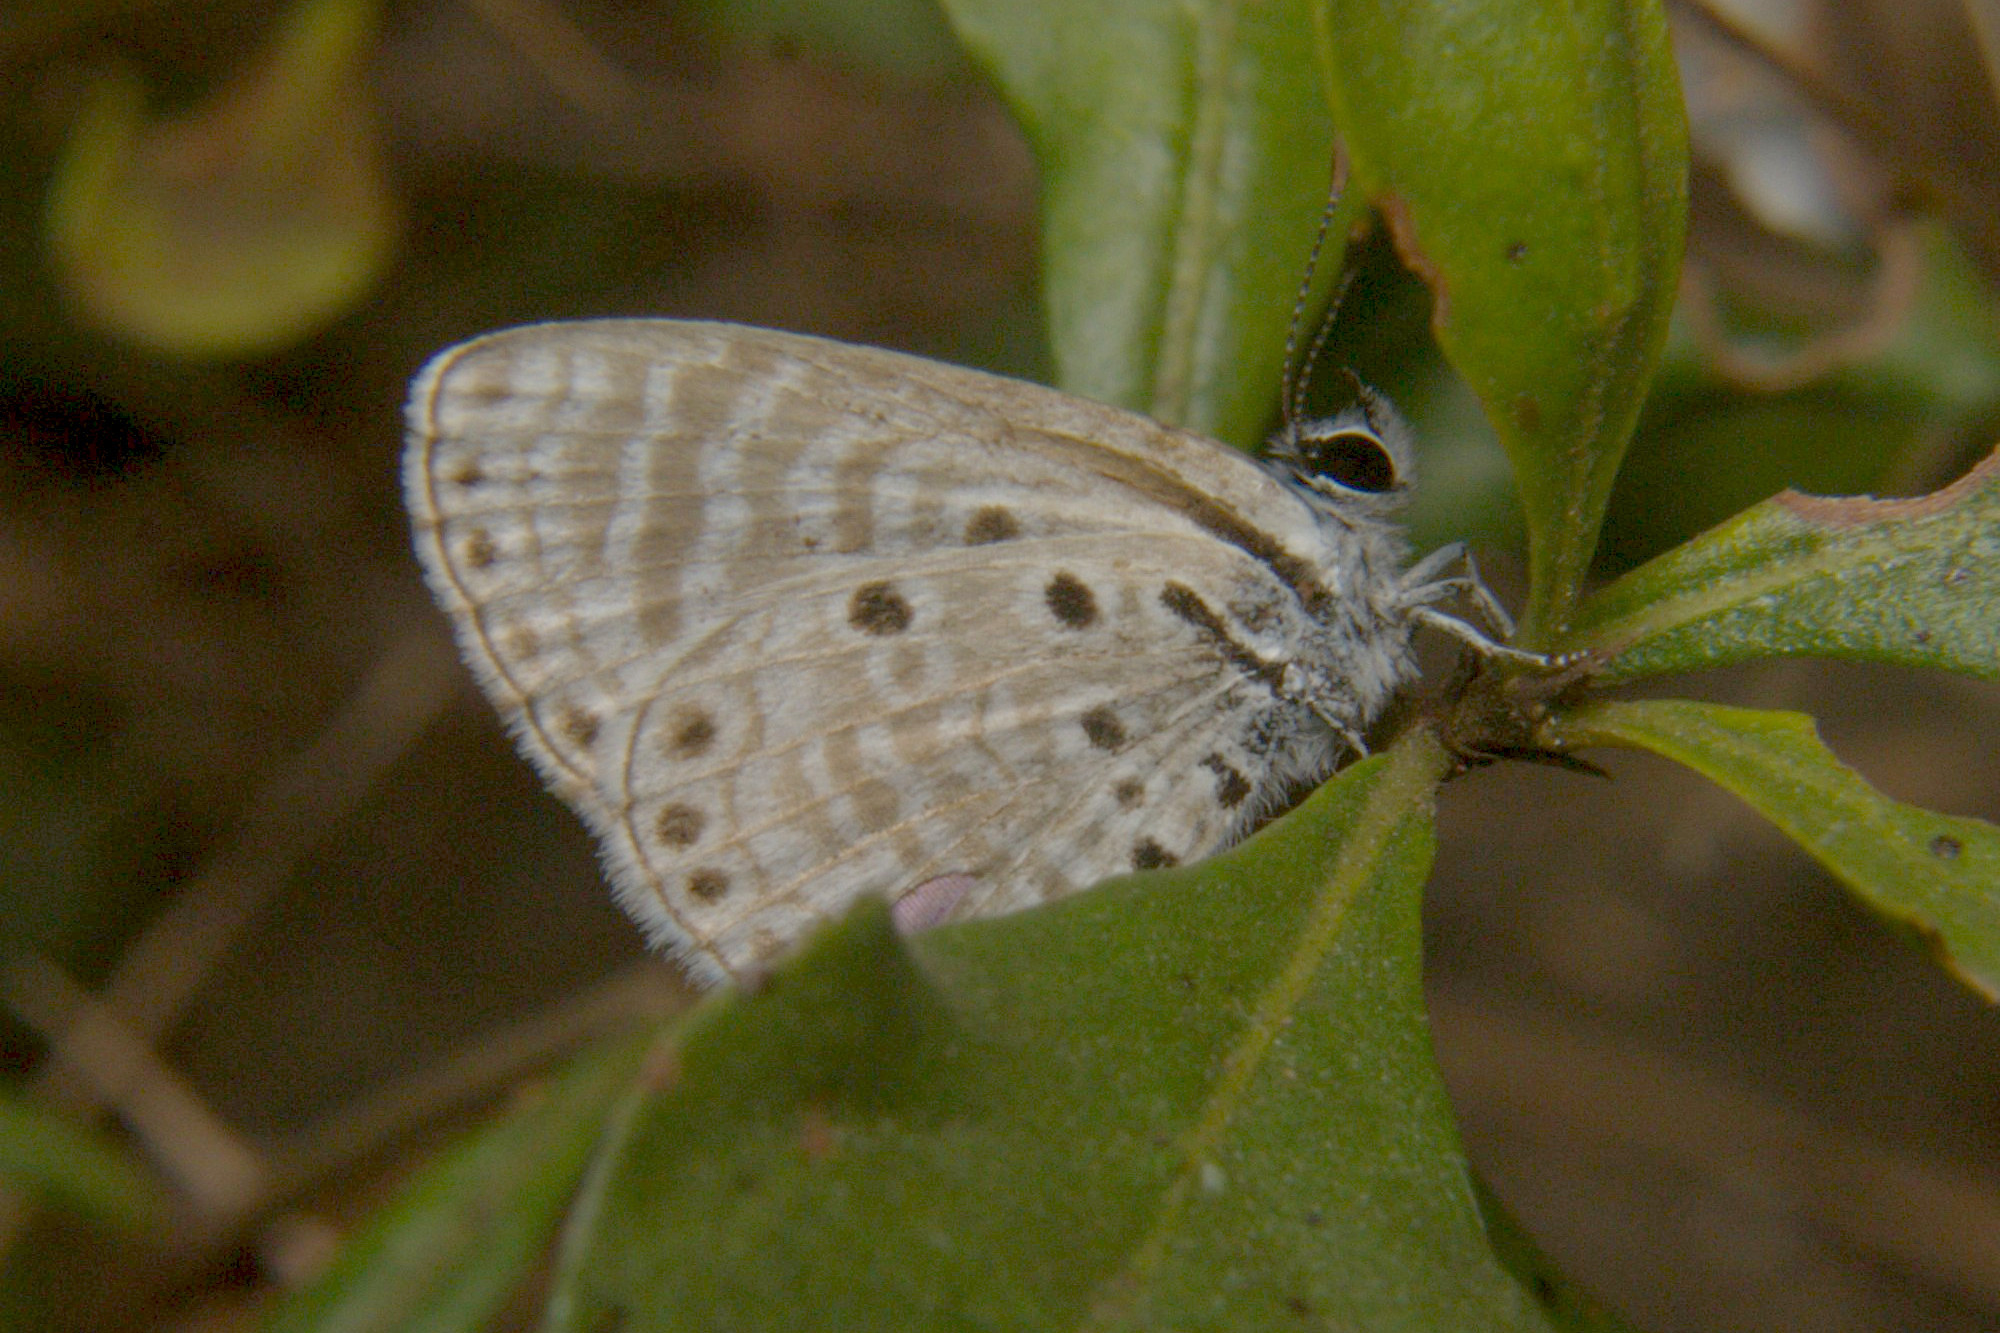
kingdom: Animalia
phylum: Arthropoda
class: Insecta
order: Lepidoptera
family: Lycaenidae
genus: Azanus
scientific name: Azanus jesous
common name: African babul blue
